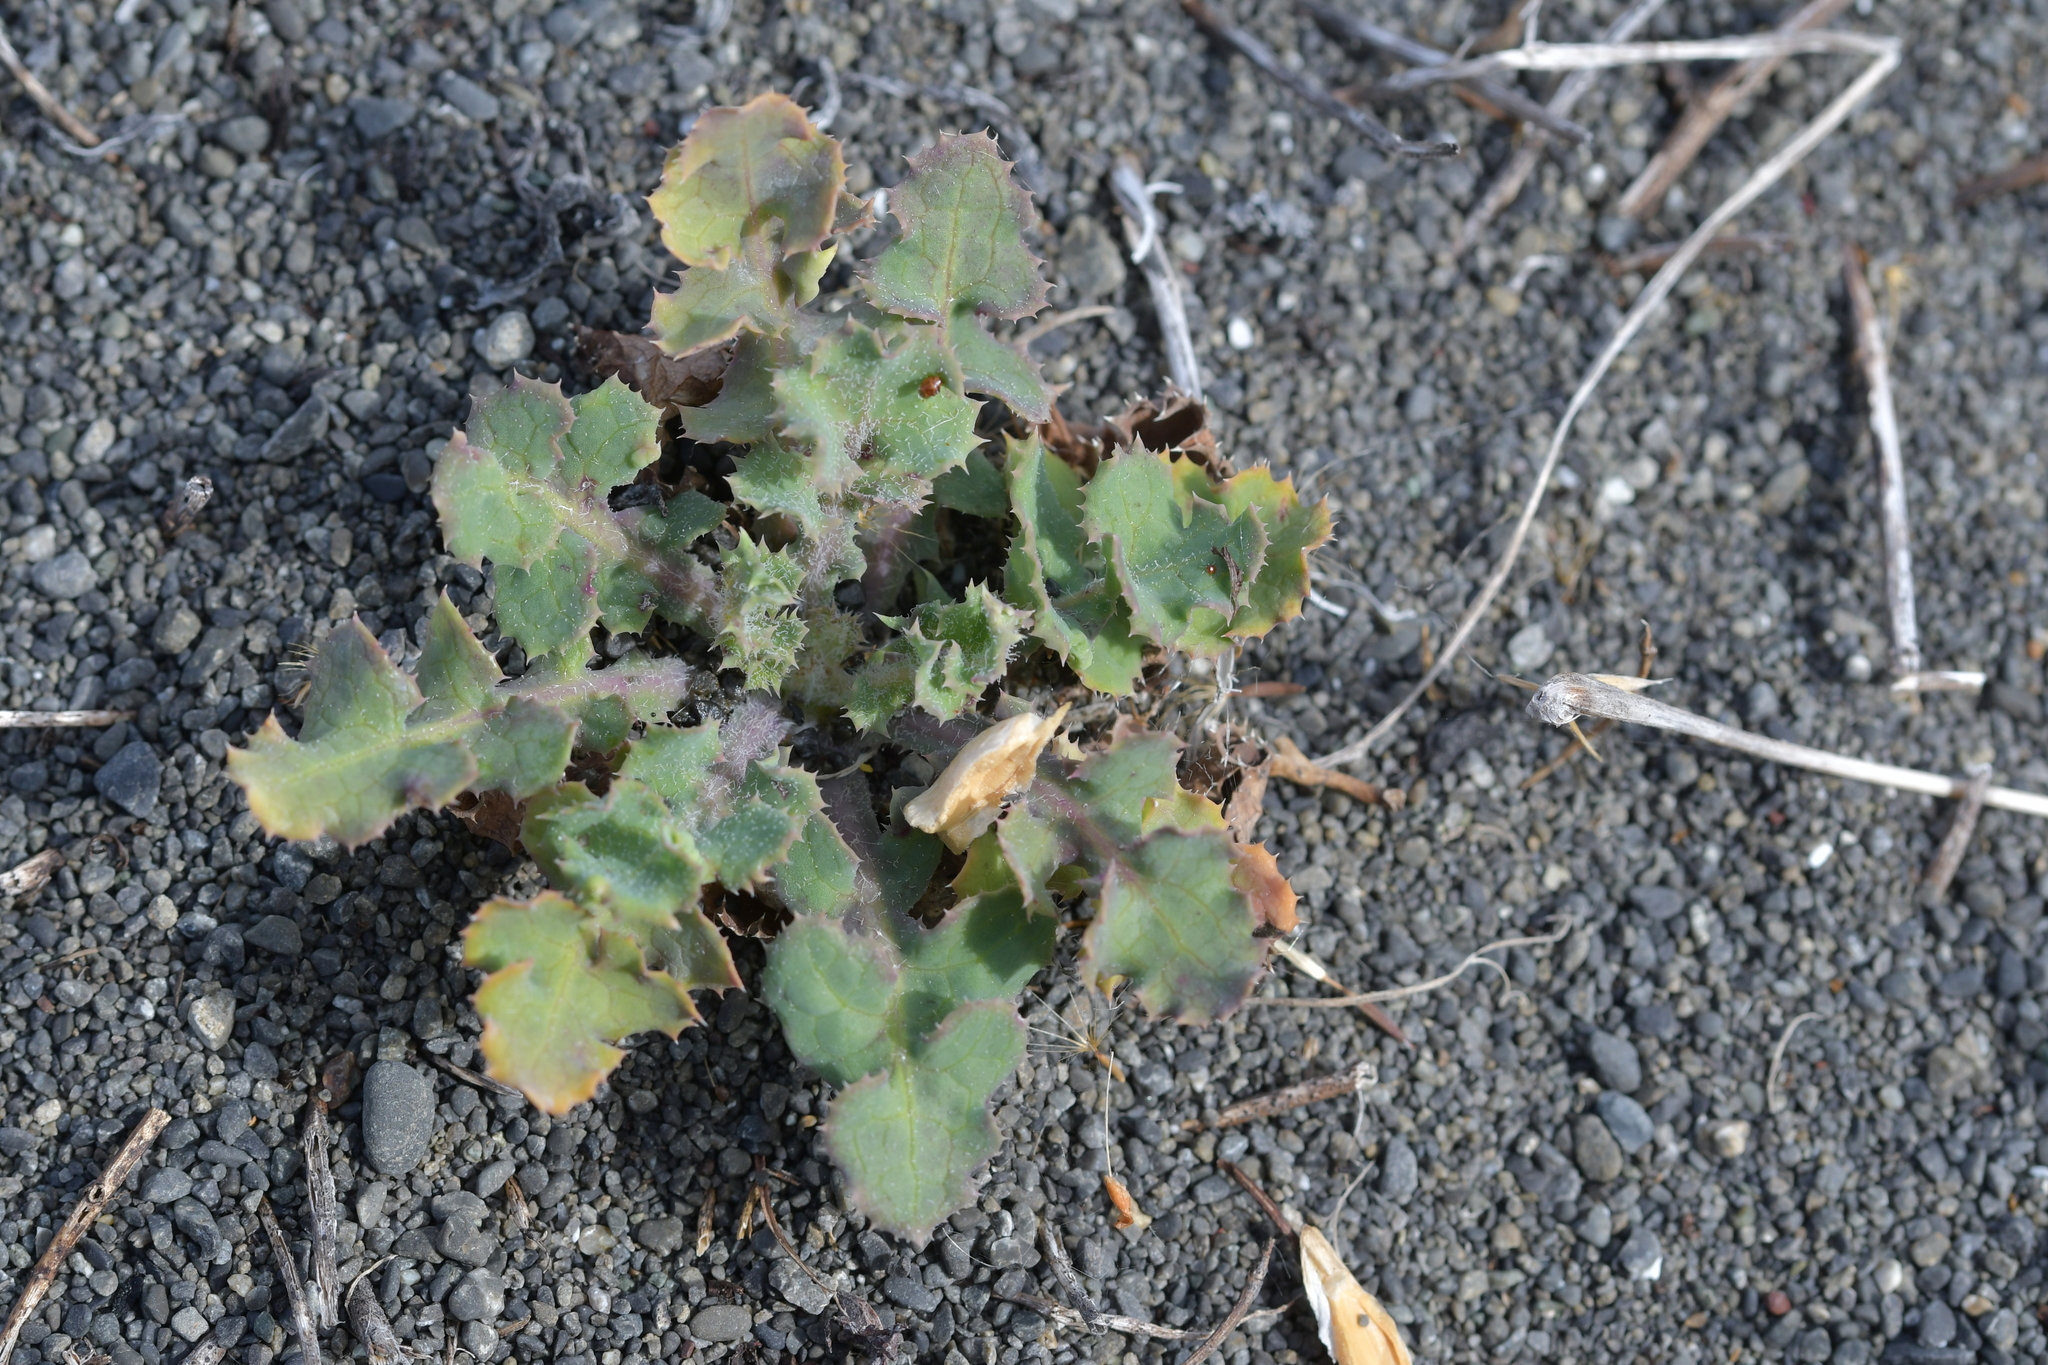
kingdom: Plantae
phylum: Tracheophyta
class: Magnoliopsida
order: Asterales
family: Asteraceae
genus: Sonchus
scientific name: Sonchus oleraceus
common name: Common sowthistle
